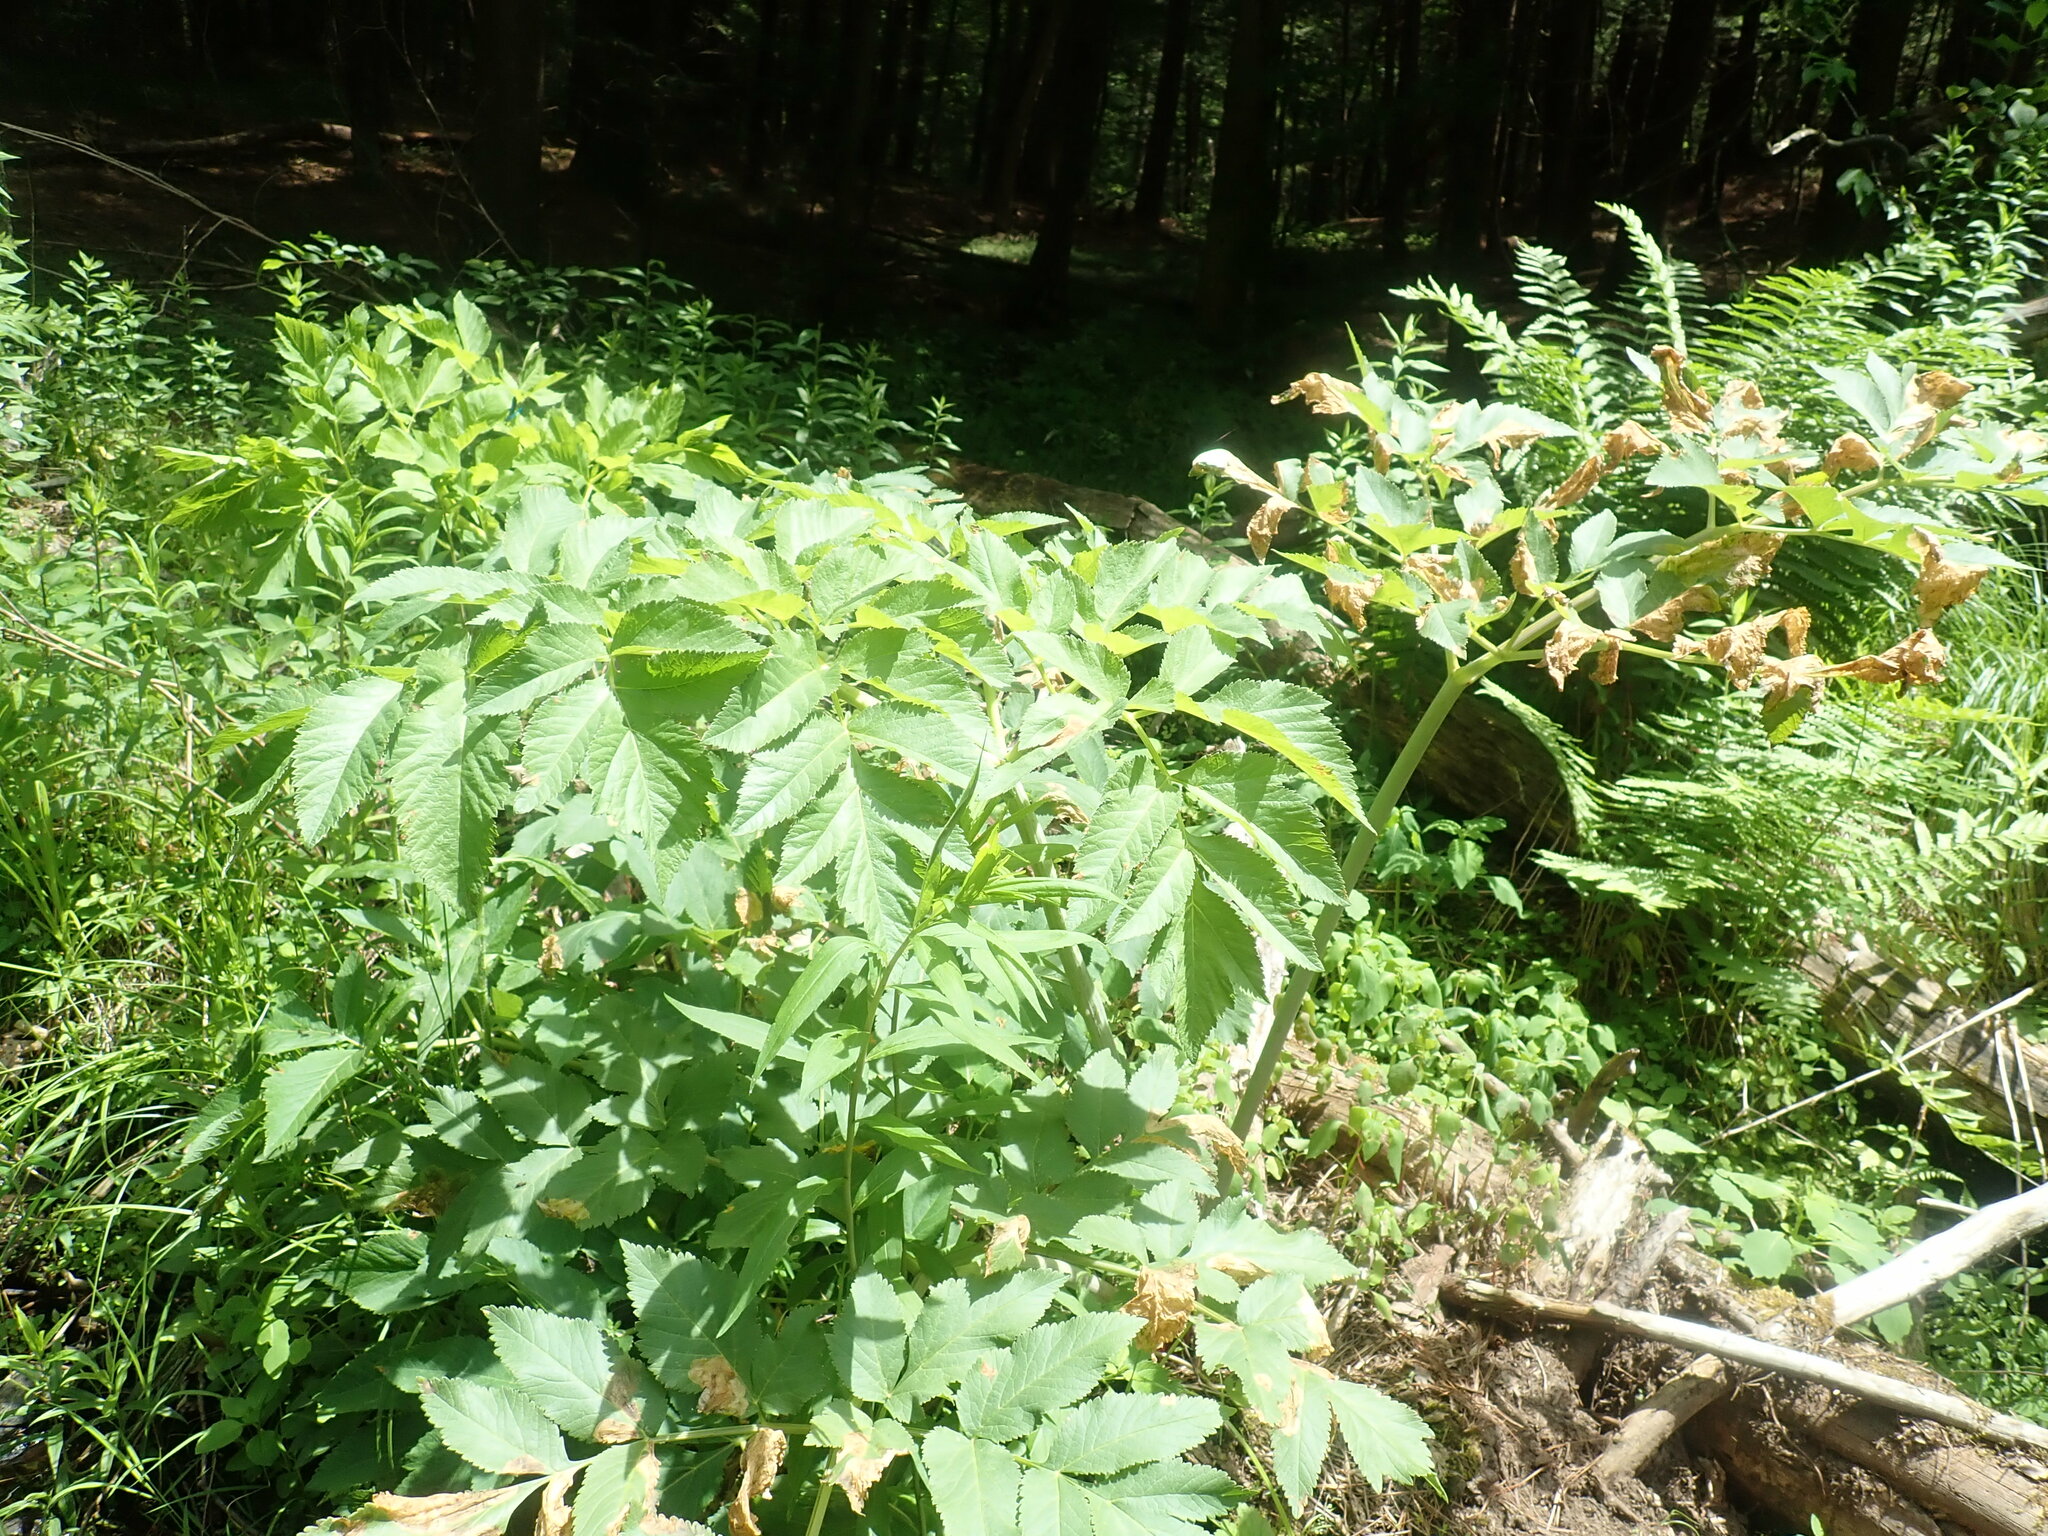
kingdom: Plantae
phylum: Tracheophyta
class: Magnoliopsida
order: Apiales
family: Apiaceae
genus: Angelica
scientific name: Angelica atropurpurea
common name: Great angelica
